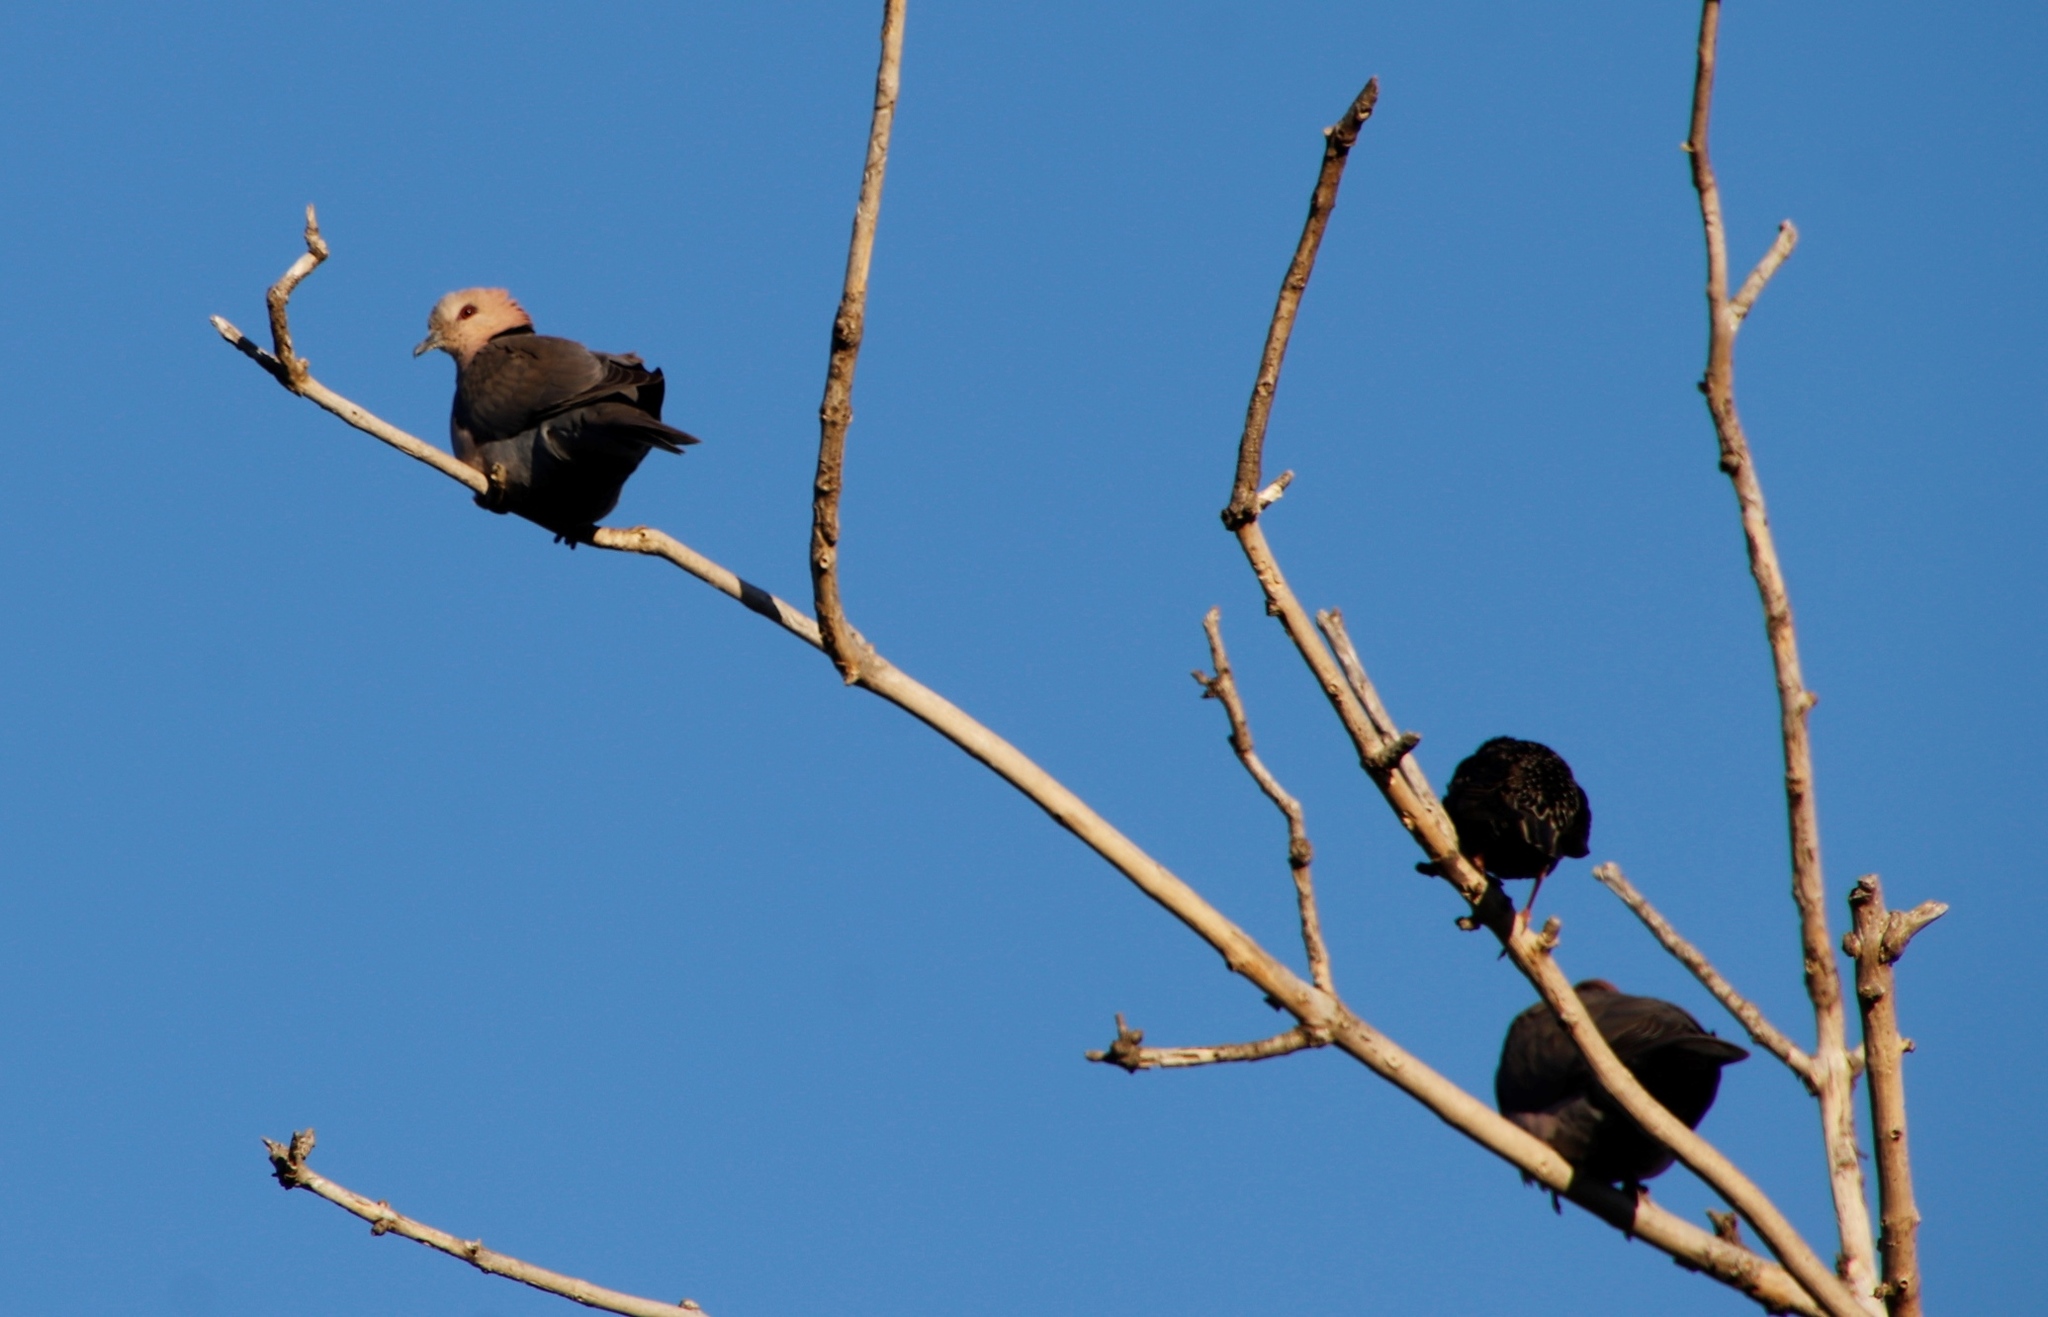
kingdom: Animalia
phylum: Chordata
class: Aves
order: Columbiformes
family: Columbidae
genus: Streptopelia
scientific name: Streptopelia semitorquata
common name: Red-eyed dove
